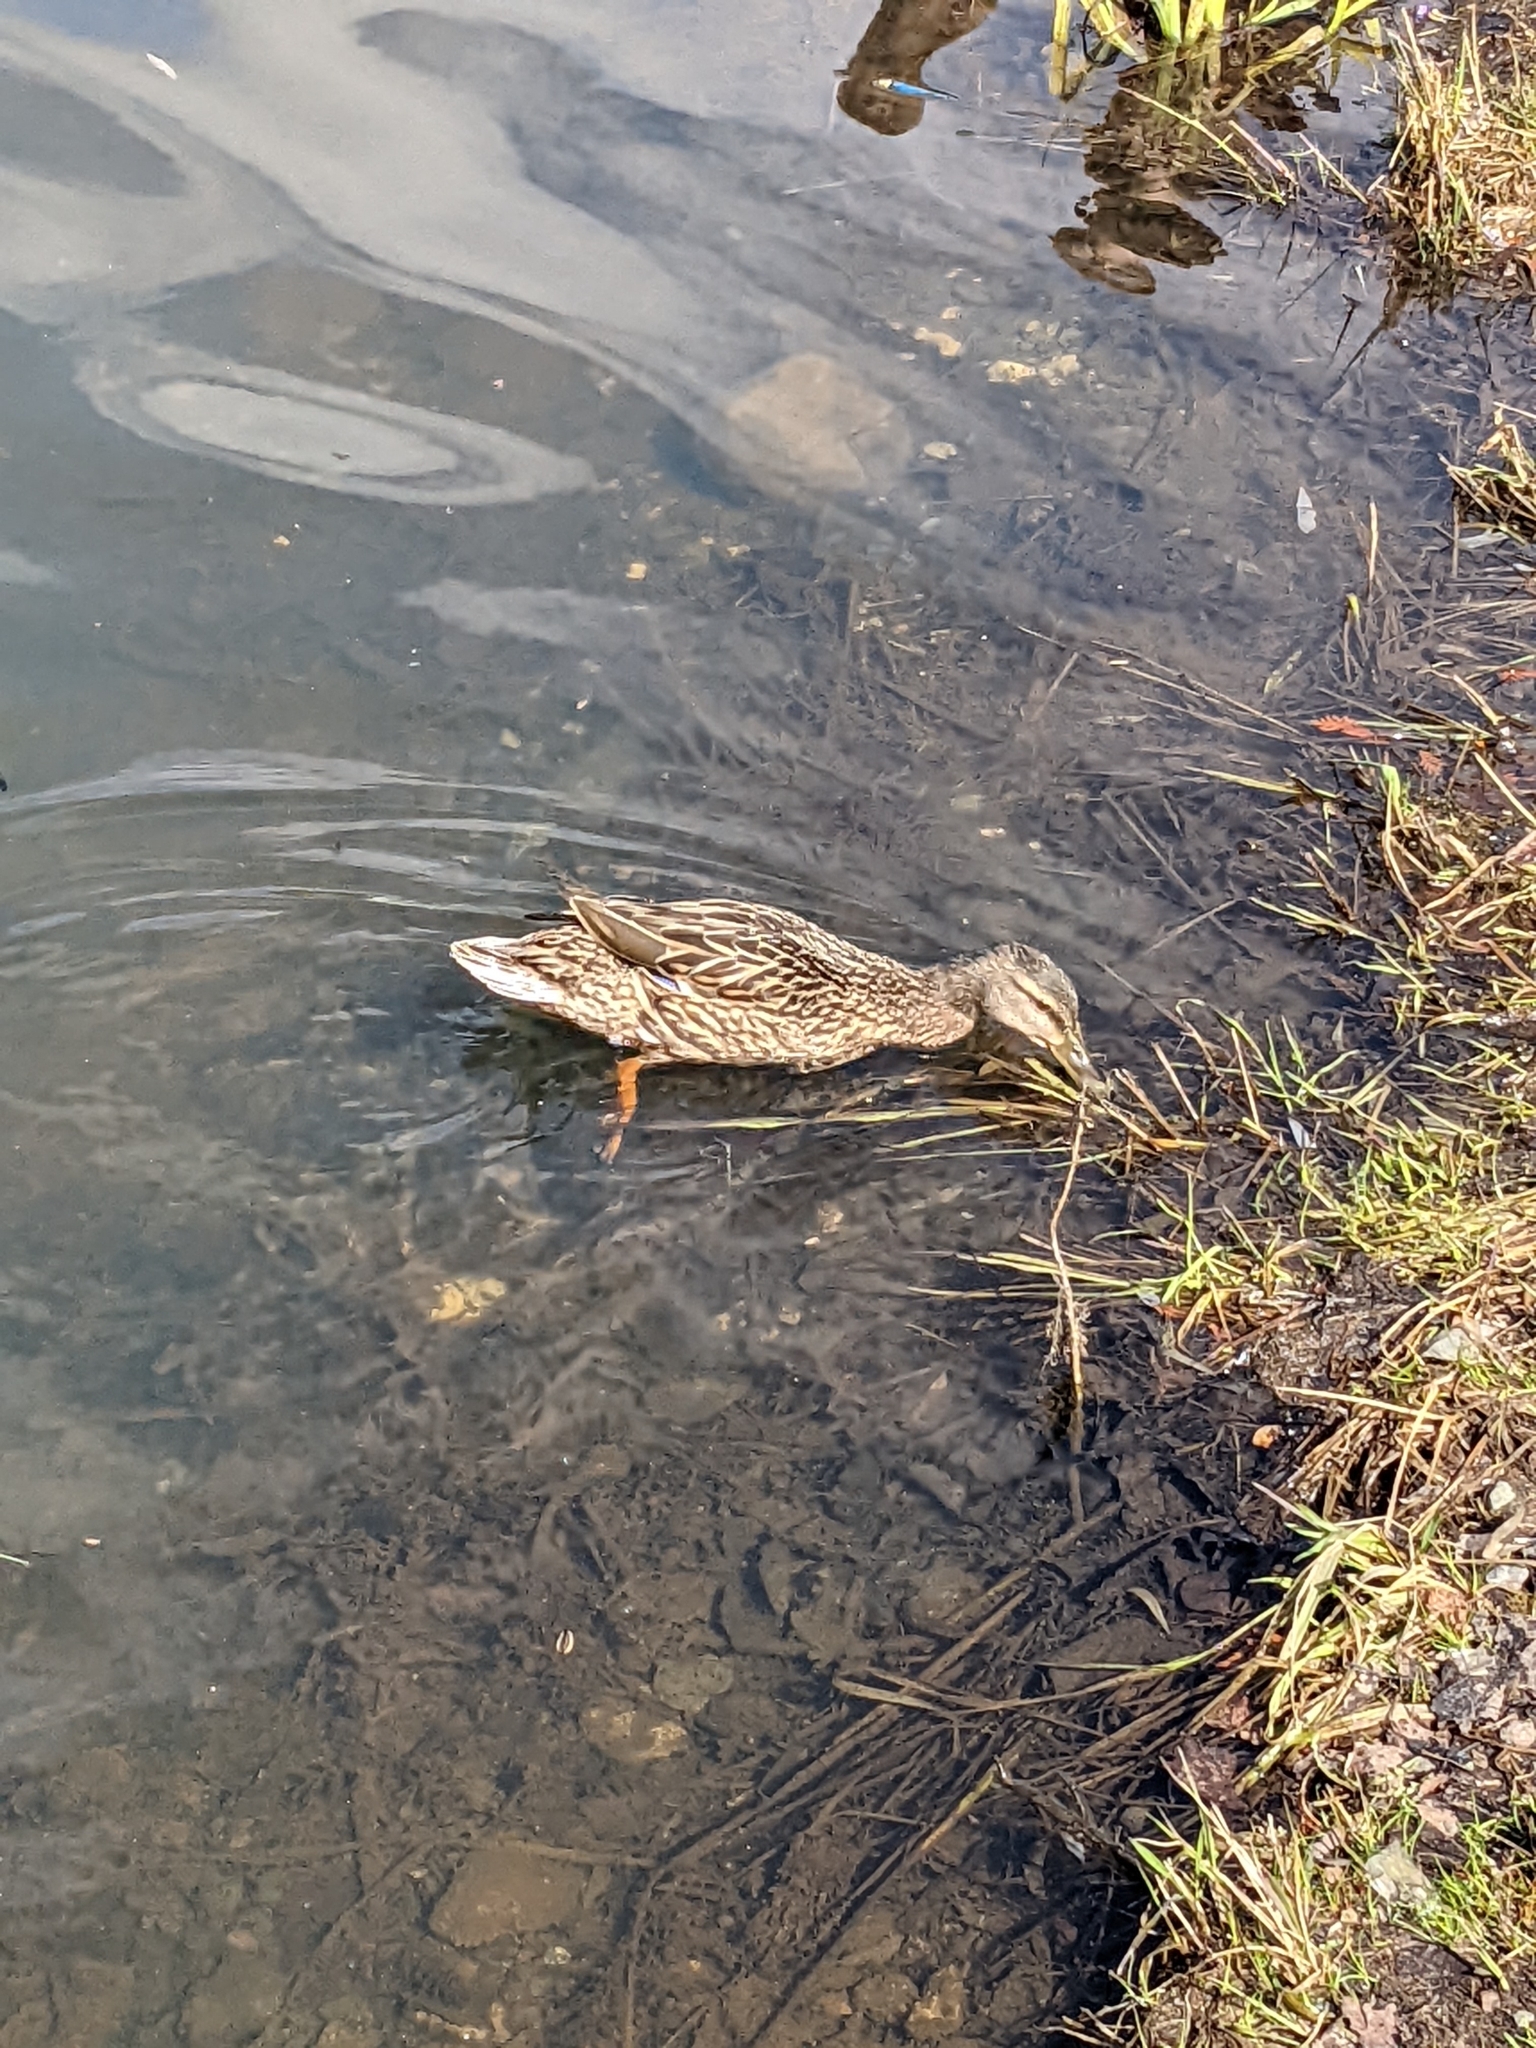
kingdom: Animalia
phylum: Chordata
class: Aves
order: Anseriformes
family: Anatidae
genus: Anas
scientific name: Anas platyrhynchos
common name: Mallard
